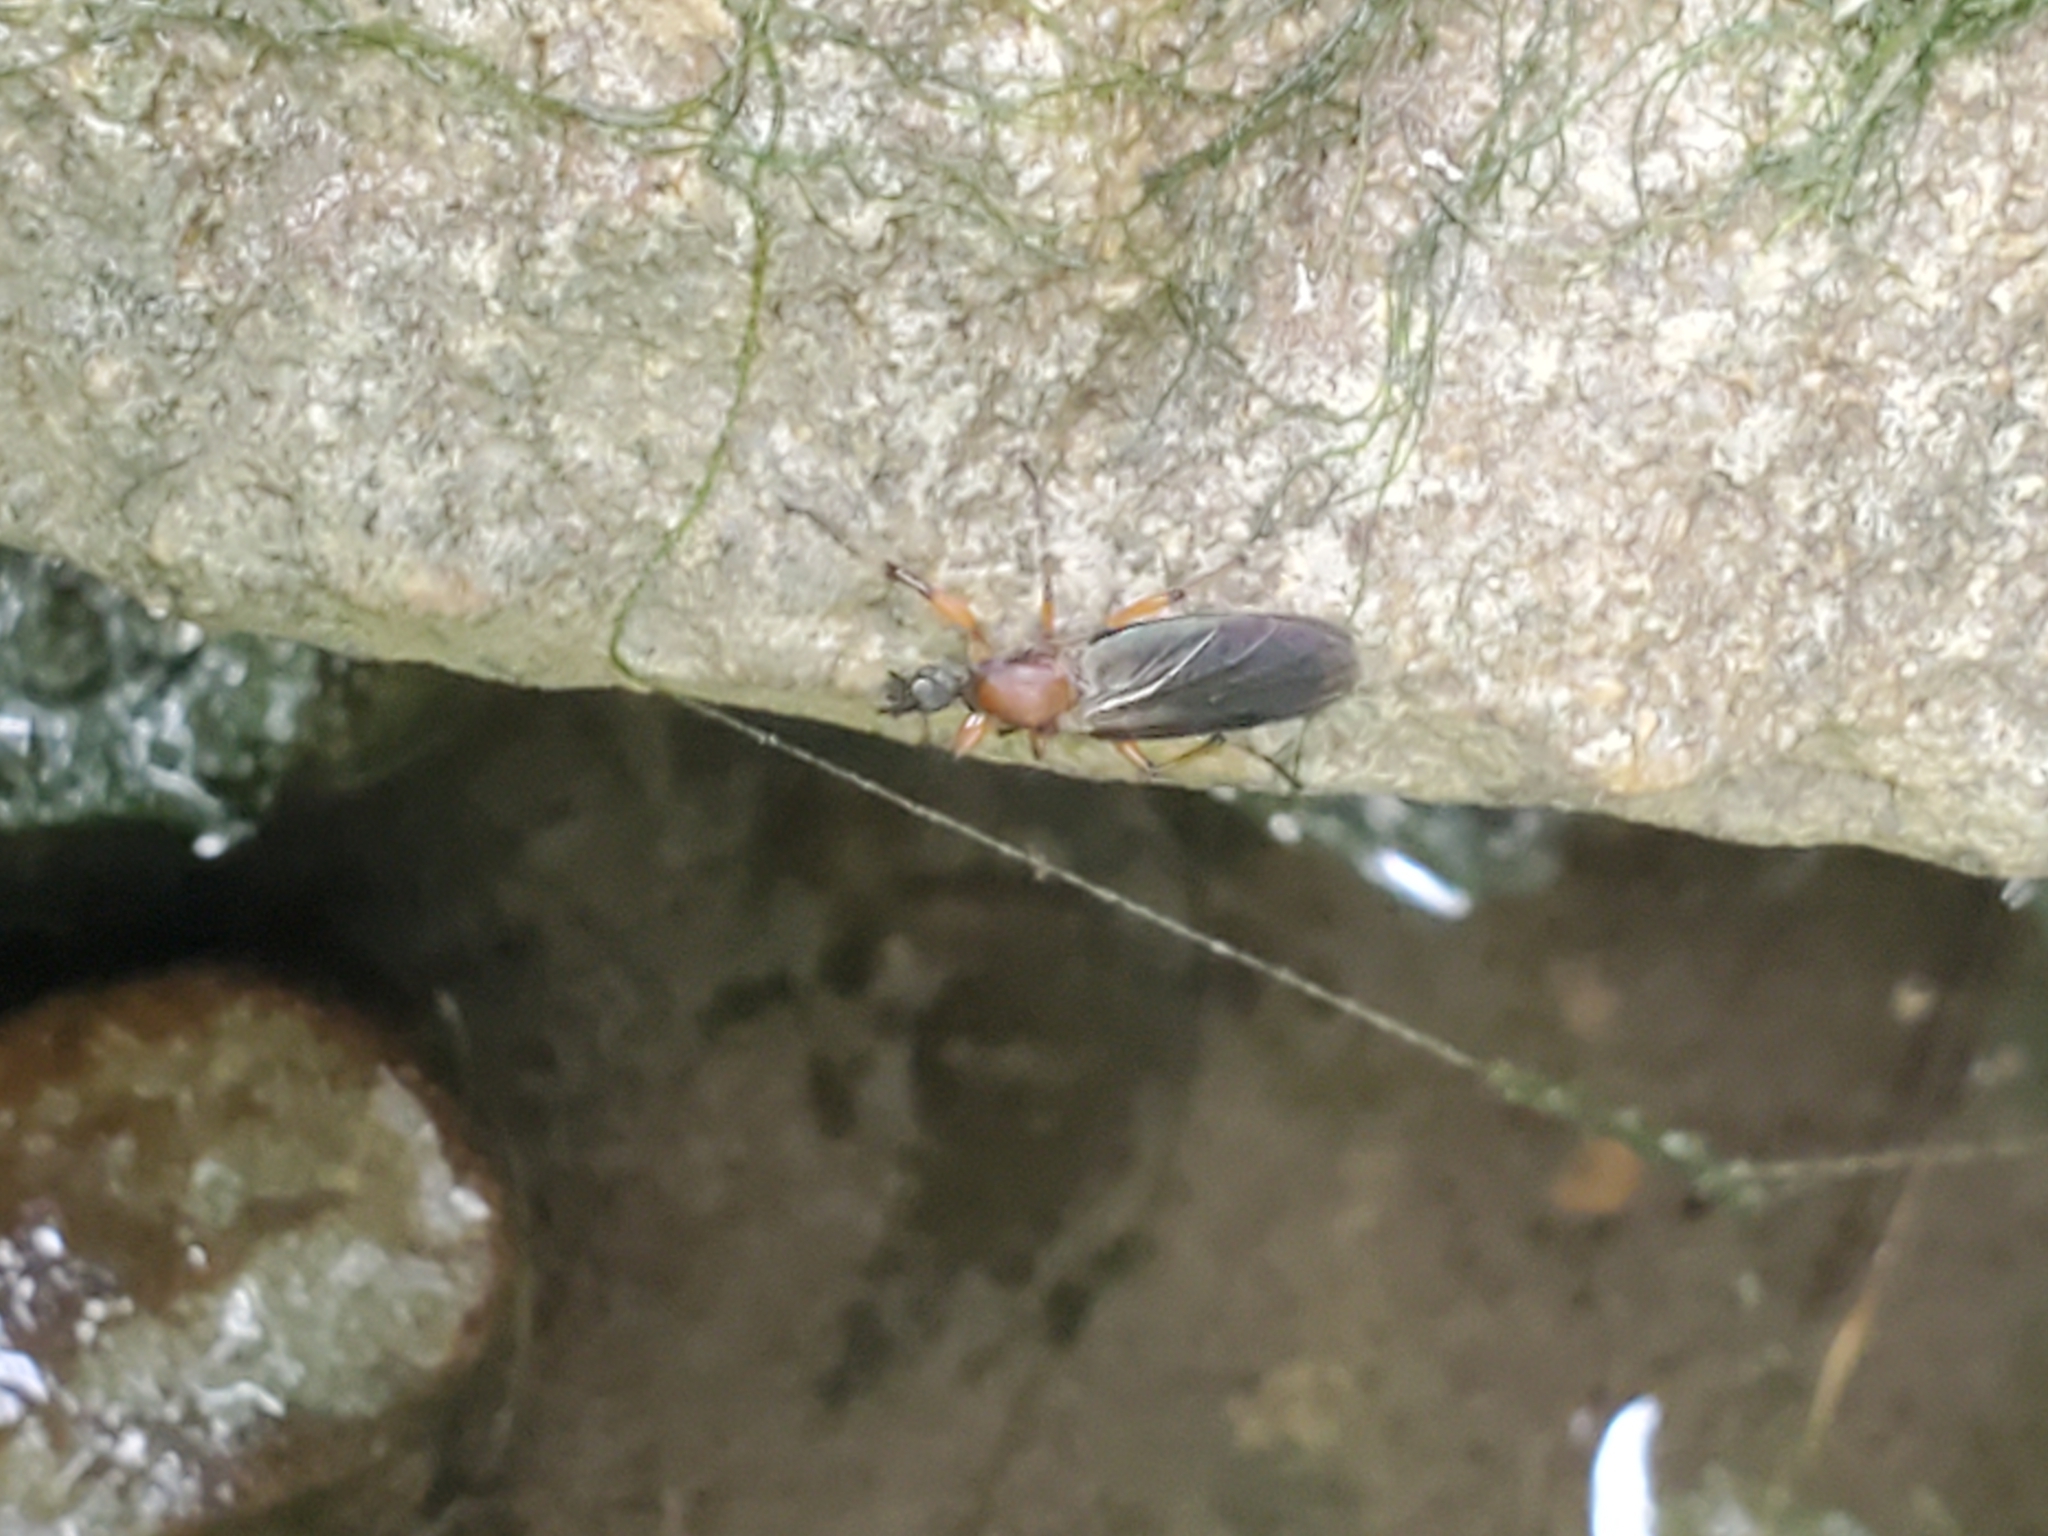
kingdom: Animalia
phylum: Arthropoda
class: Insecta
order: Diptera
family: Bibionidae
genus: Bibio
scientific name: Bibio
